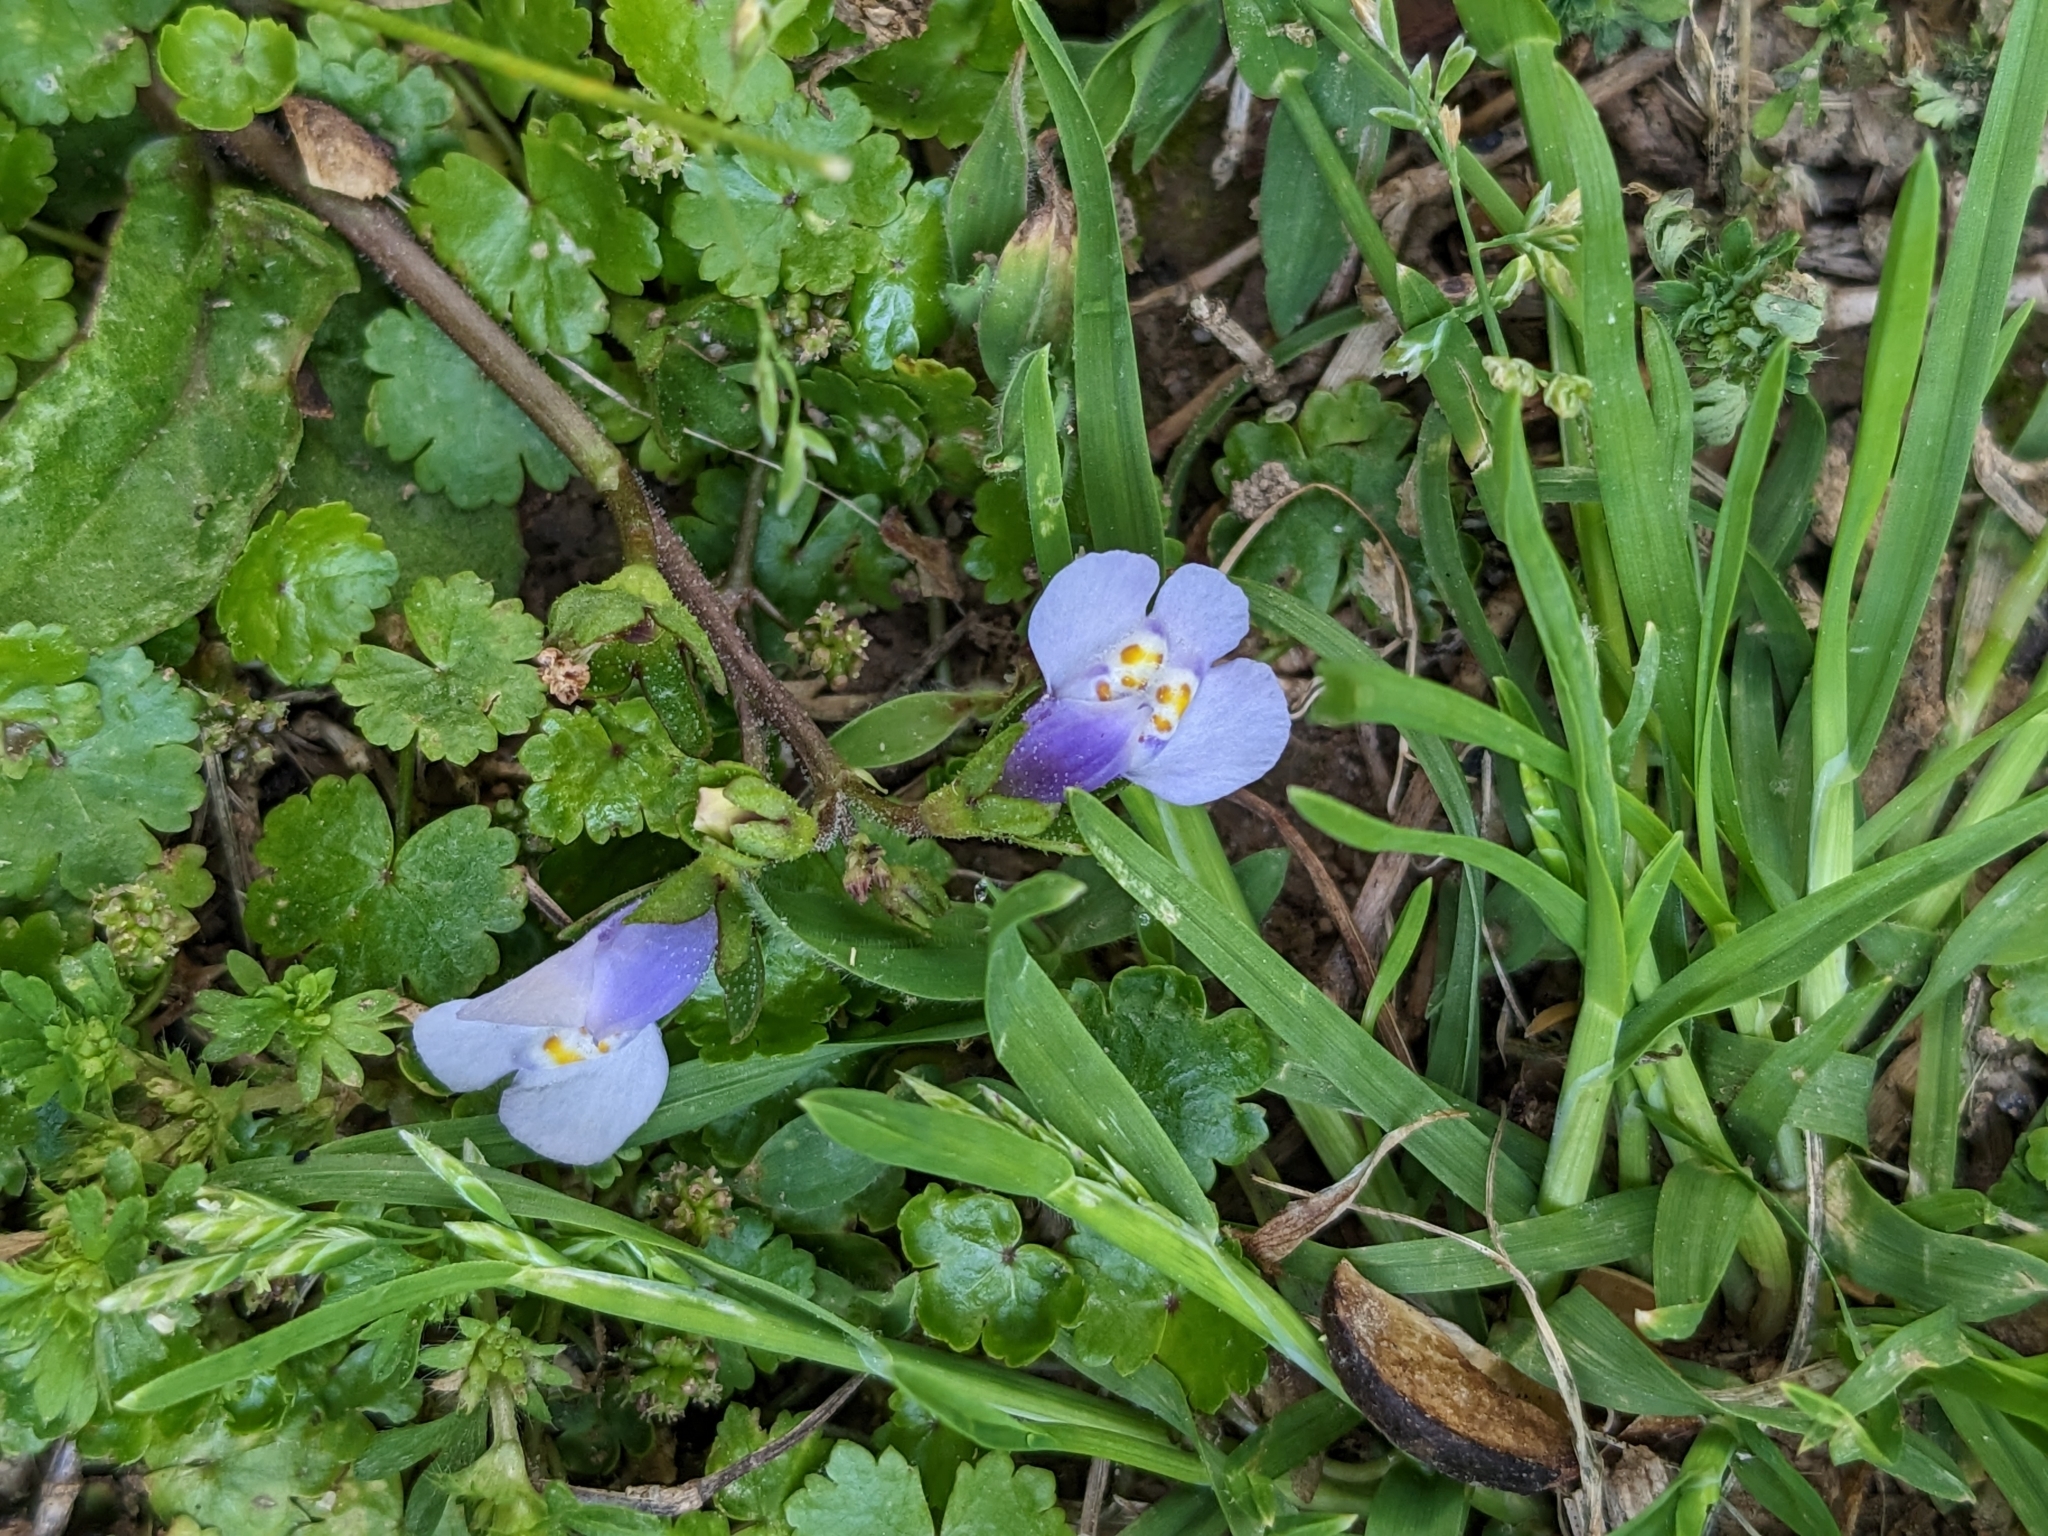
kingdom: Plantae
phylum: Tracheophyta
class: Magnoliopsida
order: Lamiales
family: Mazaceae
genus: Mazus
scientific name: Mazus pumilus
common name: Japanese mazus
